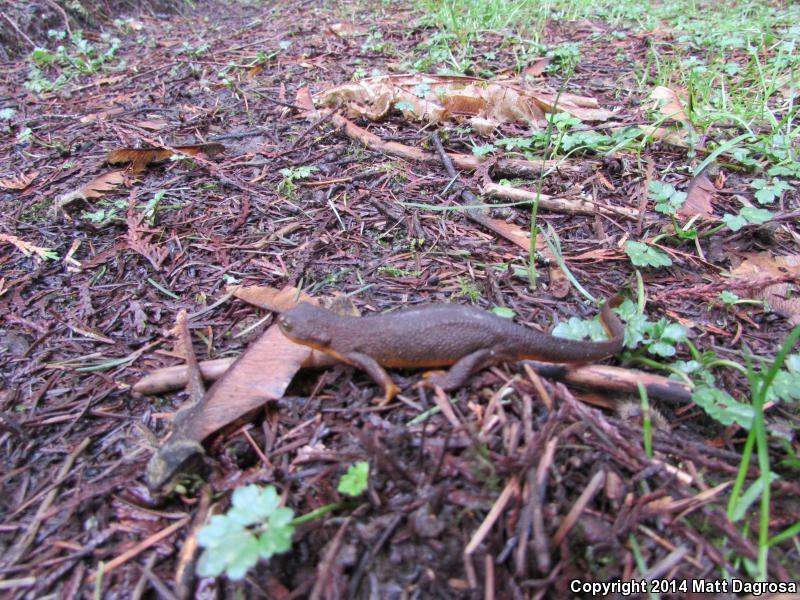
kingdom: Animalia
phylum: Chordata
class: Amphibia
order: Caudata
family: Salamandridae
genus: Taricha
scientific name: Taricha granulosa
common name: Roughskin newt
